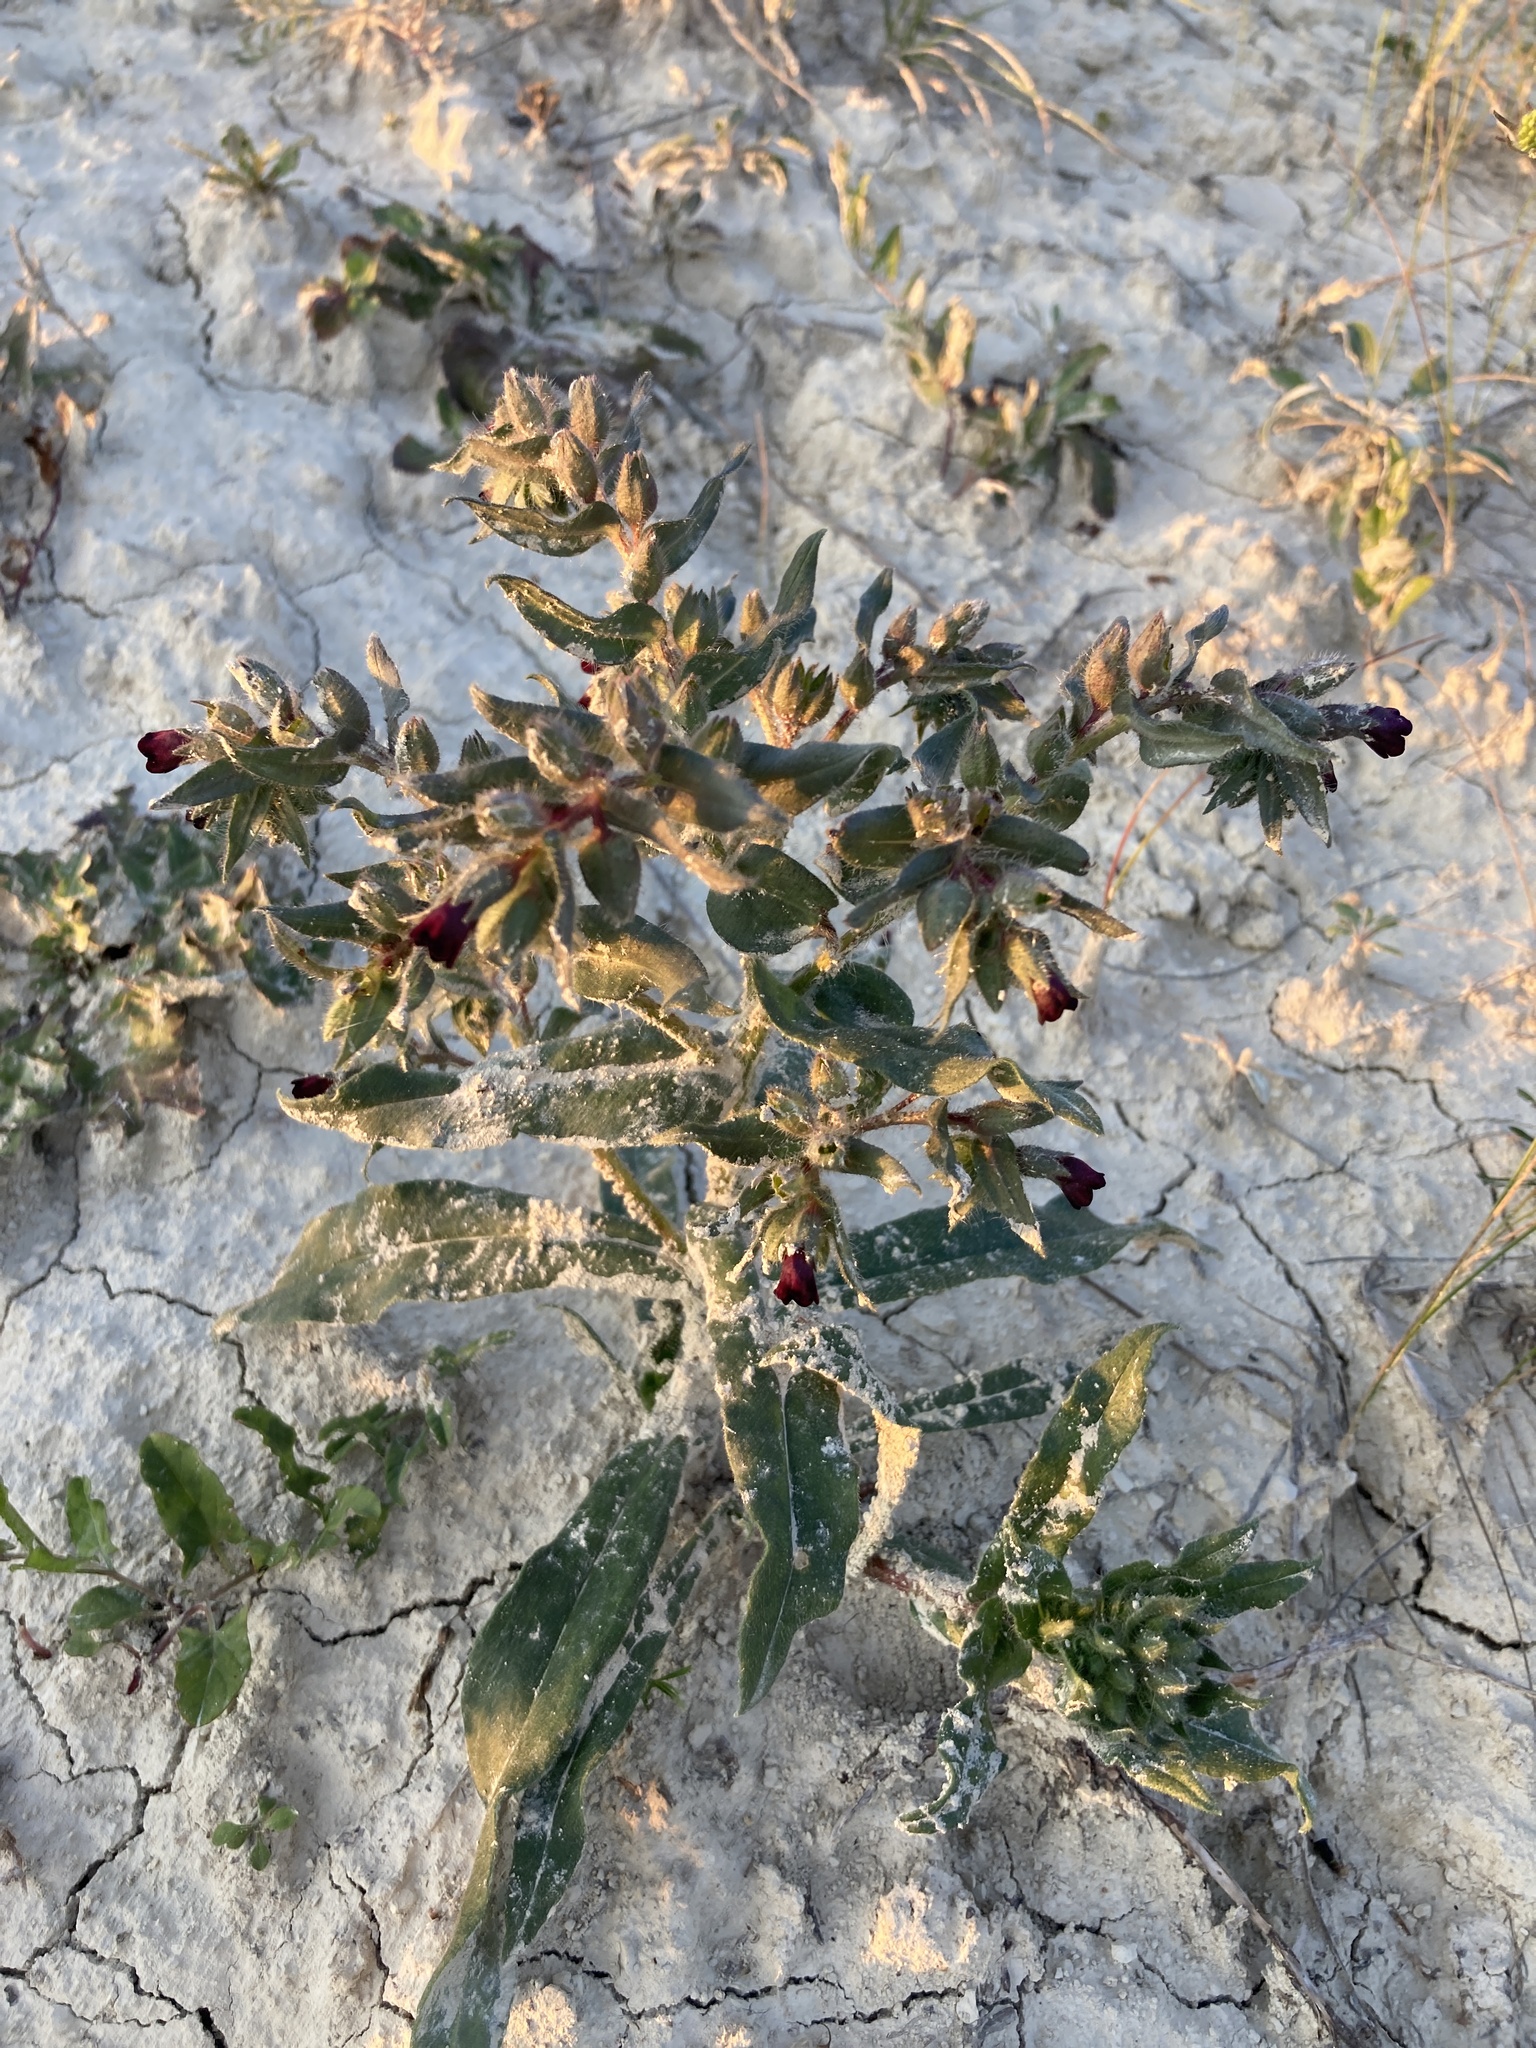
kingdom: Plantae
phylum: Tracheophyta
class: Magnoliopsida
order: Boraginales
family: Boraginaceae
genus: Nonea
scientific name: Nonea pulla
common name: Brown nonea
